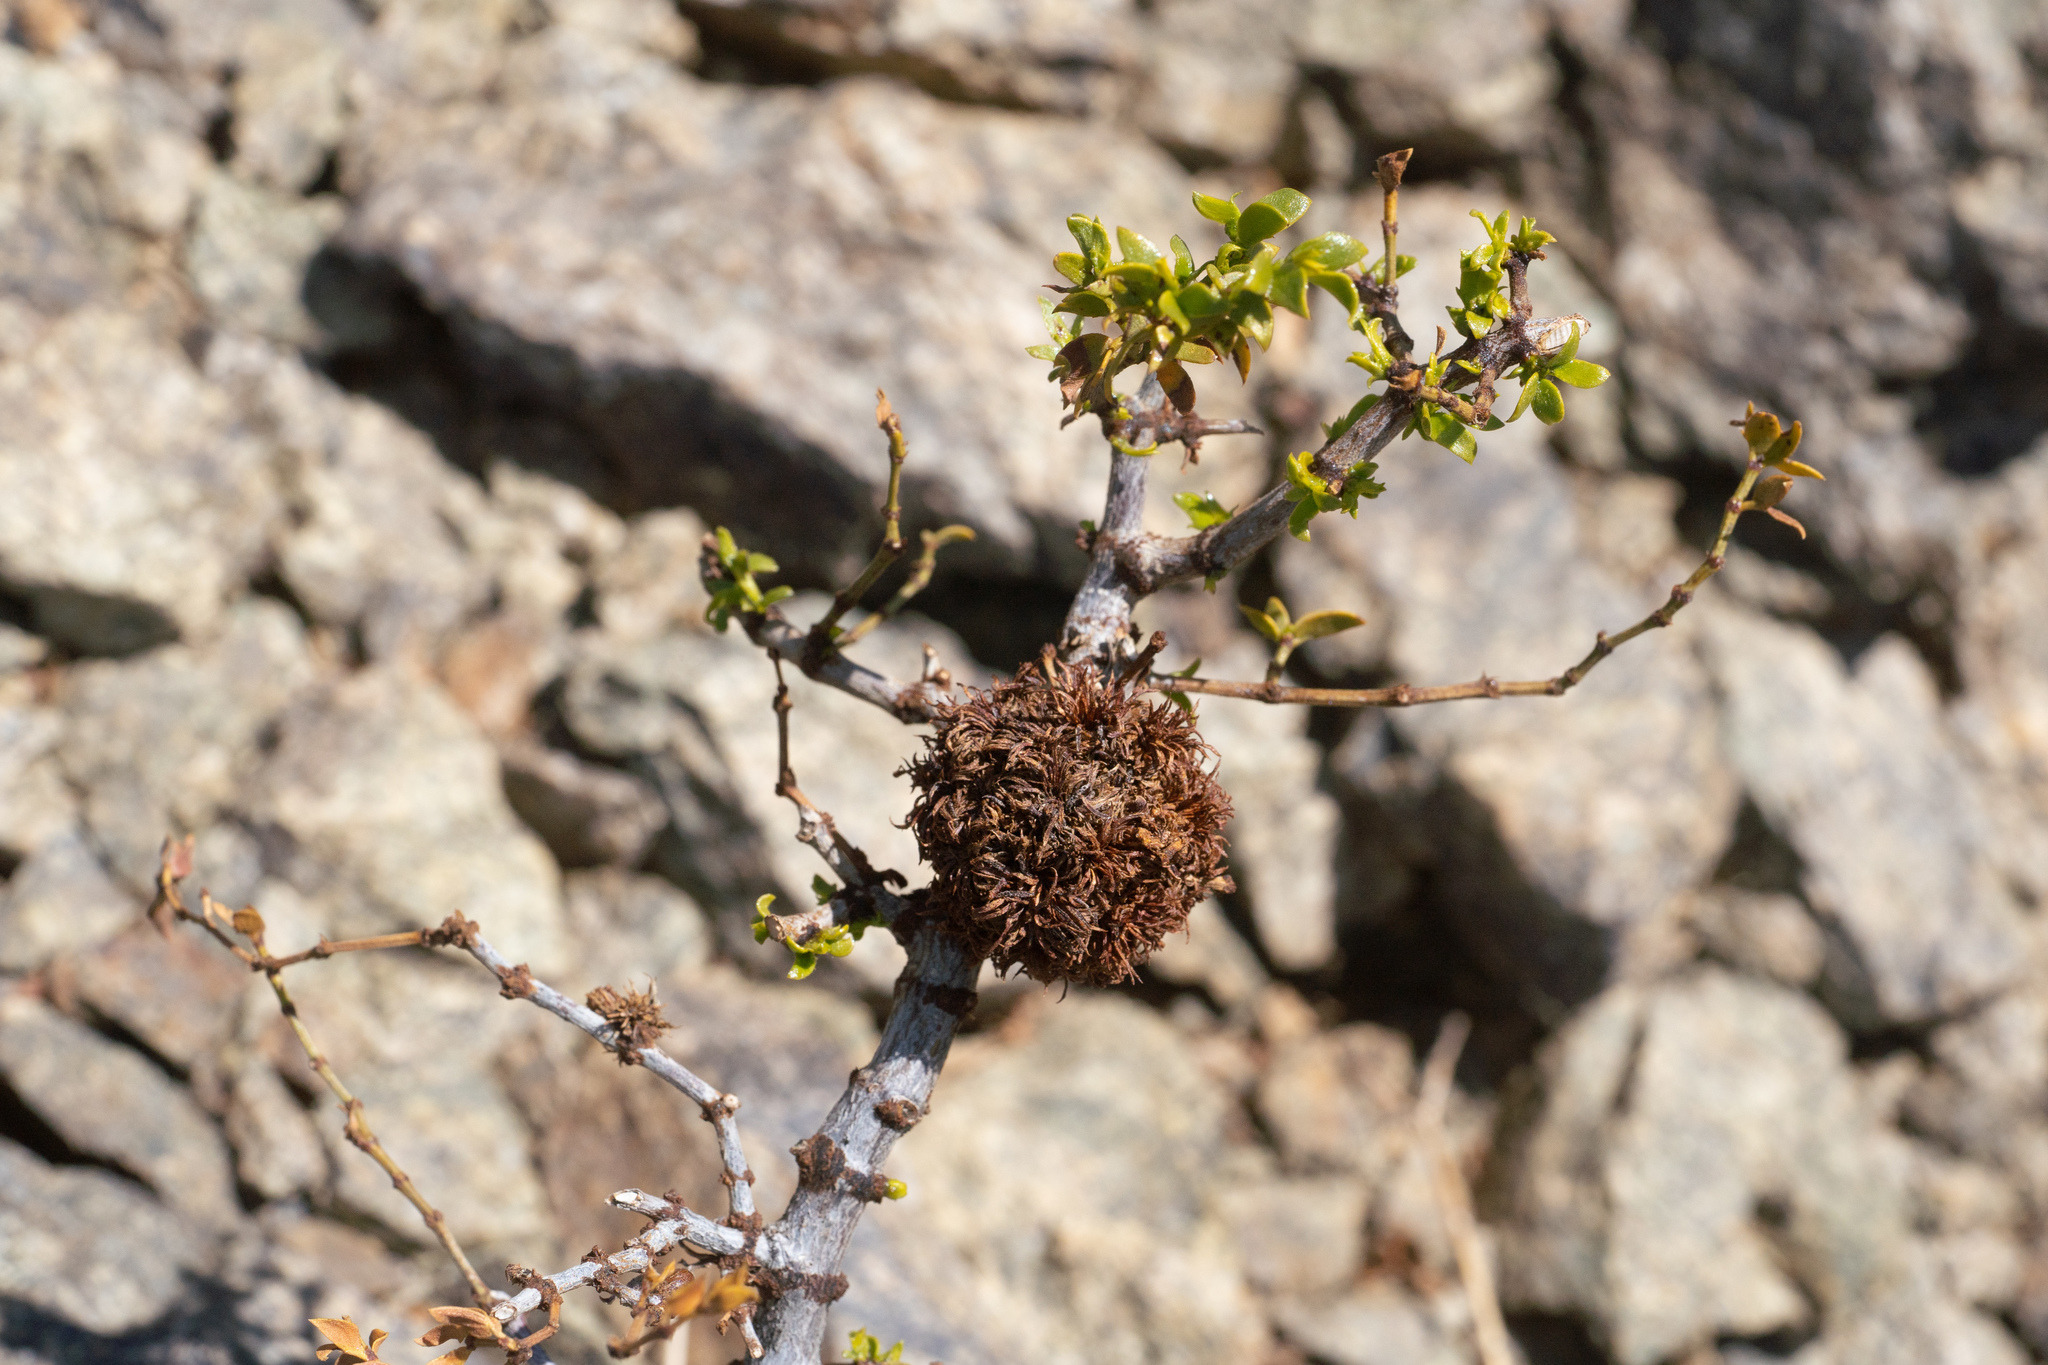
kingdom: Animalia
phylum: Arthropoda
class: Insecta
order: Diptera
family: Cecidomyiidae
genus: Asphondylia
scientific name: Asphondylia auripila
